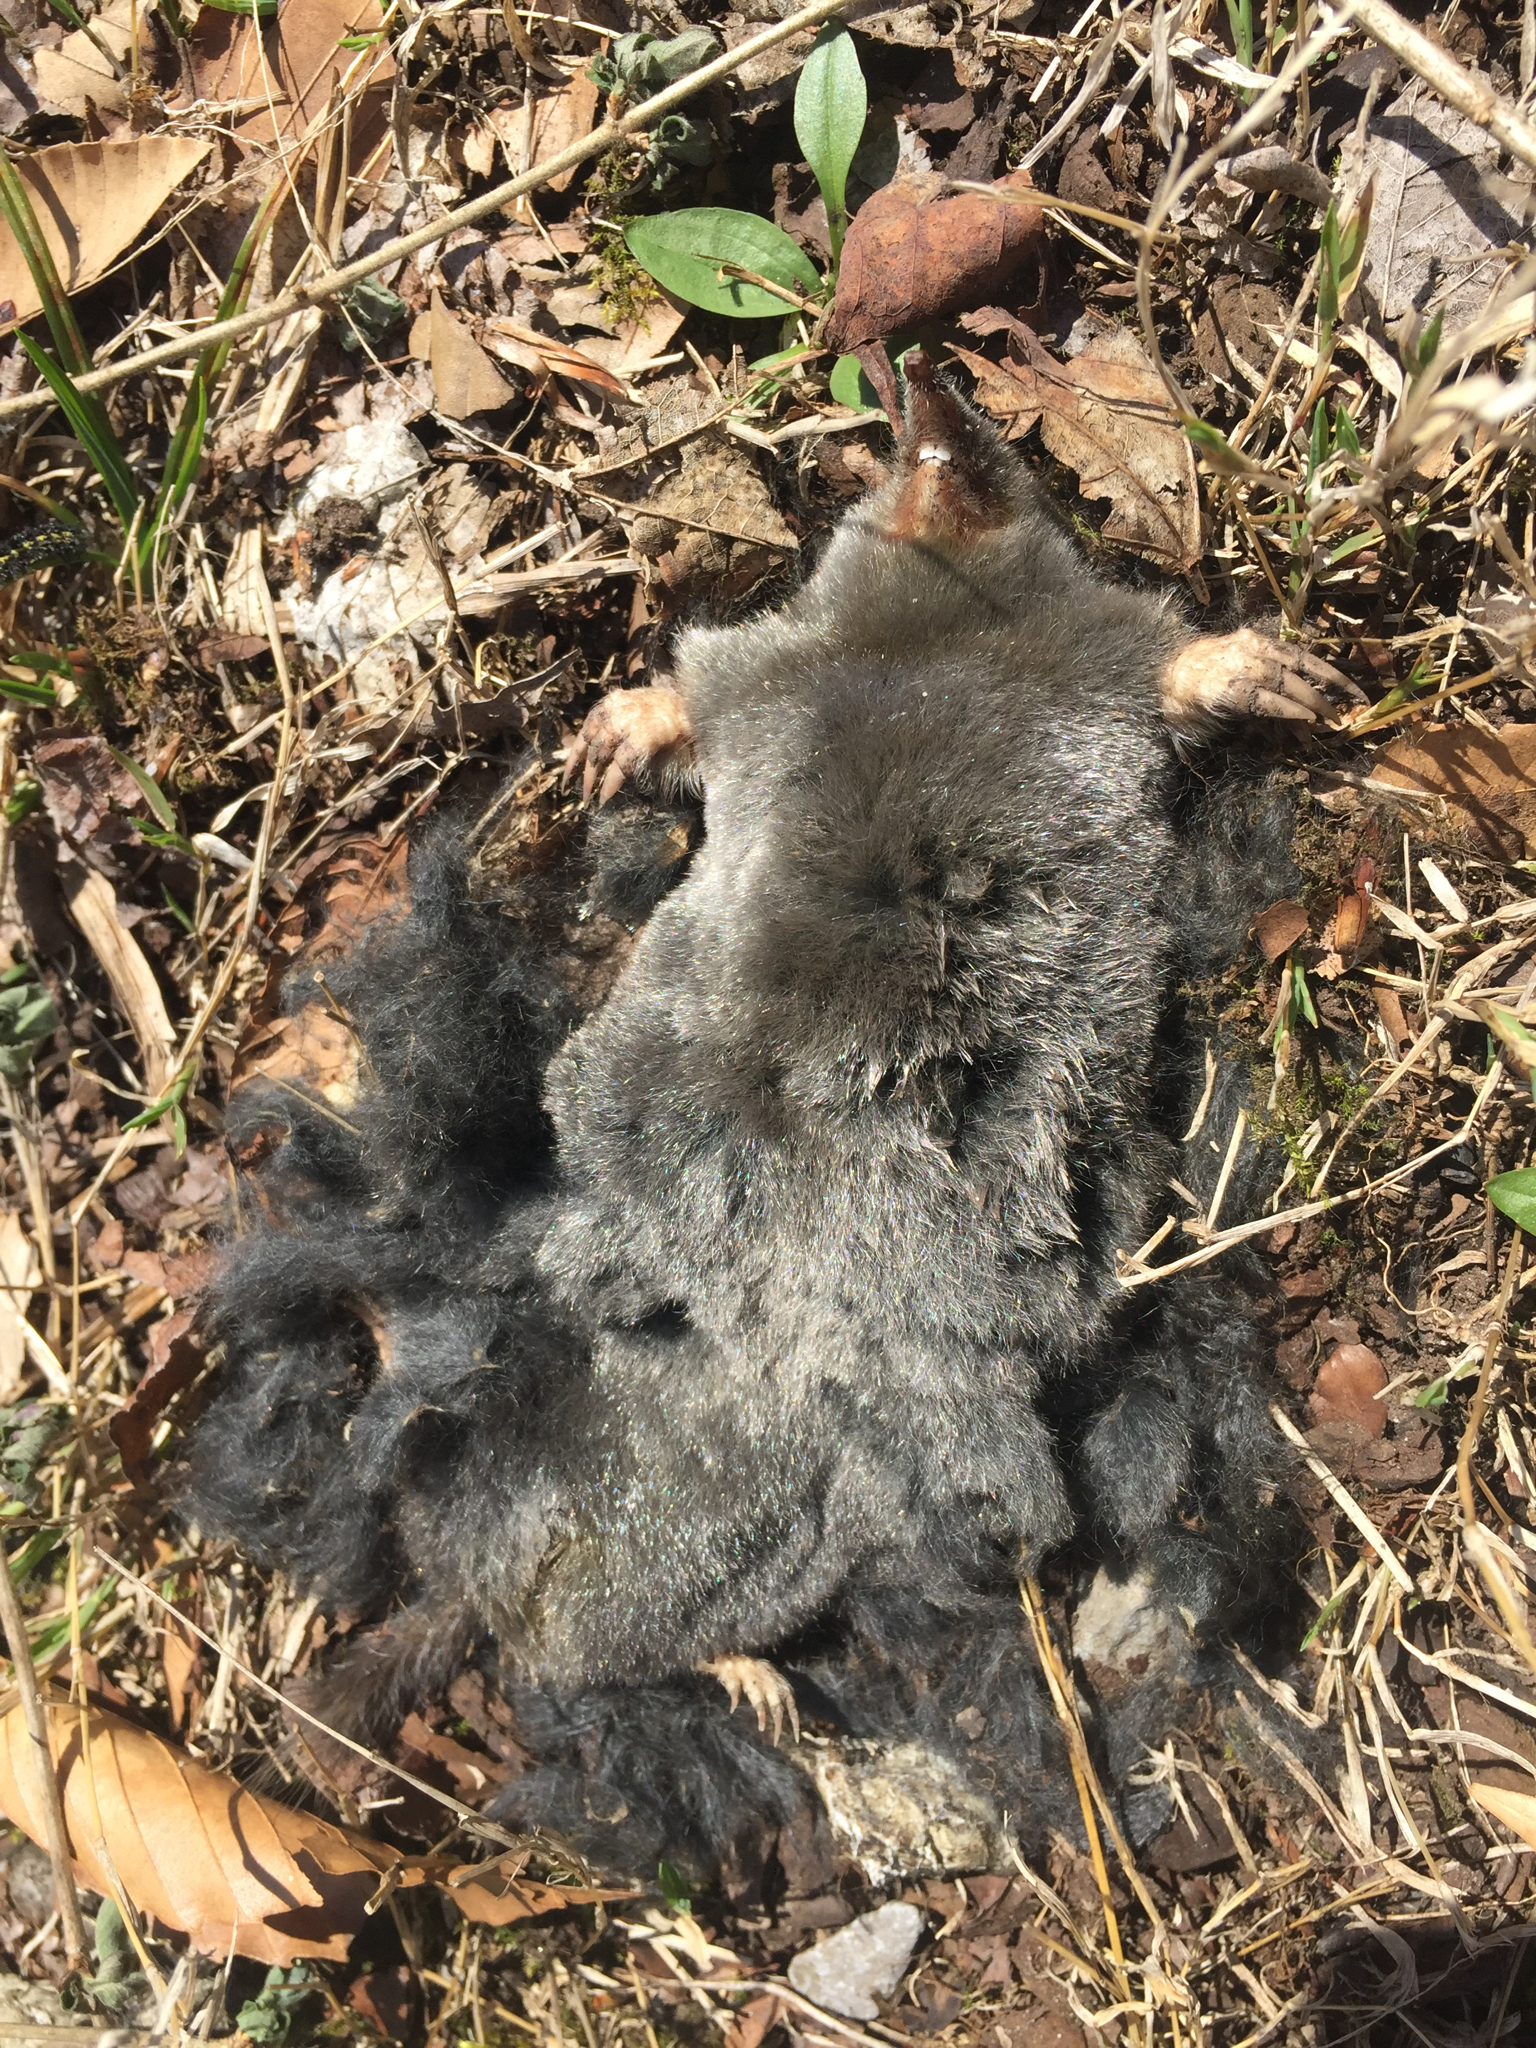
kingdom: Animalia
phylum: Chordata
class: Mammalia
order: Soricomorpha
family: Talpidae
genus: Parascalops
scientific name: Parascalops breweri
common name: Hairy-tailed mole
